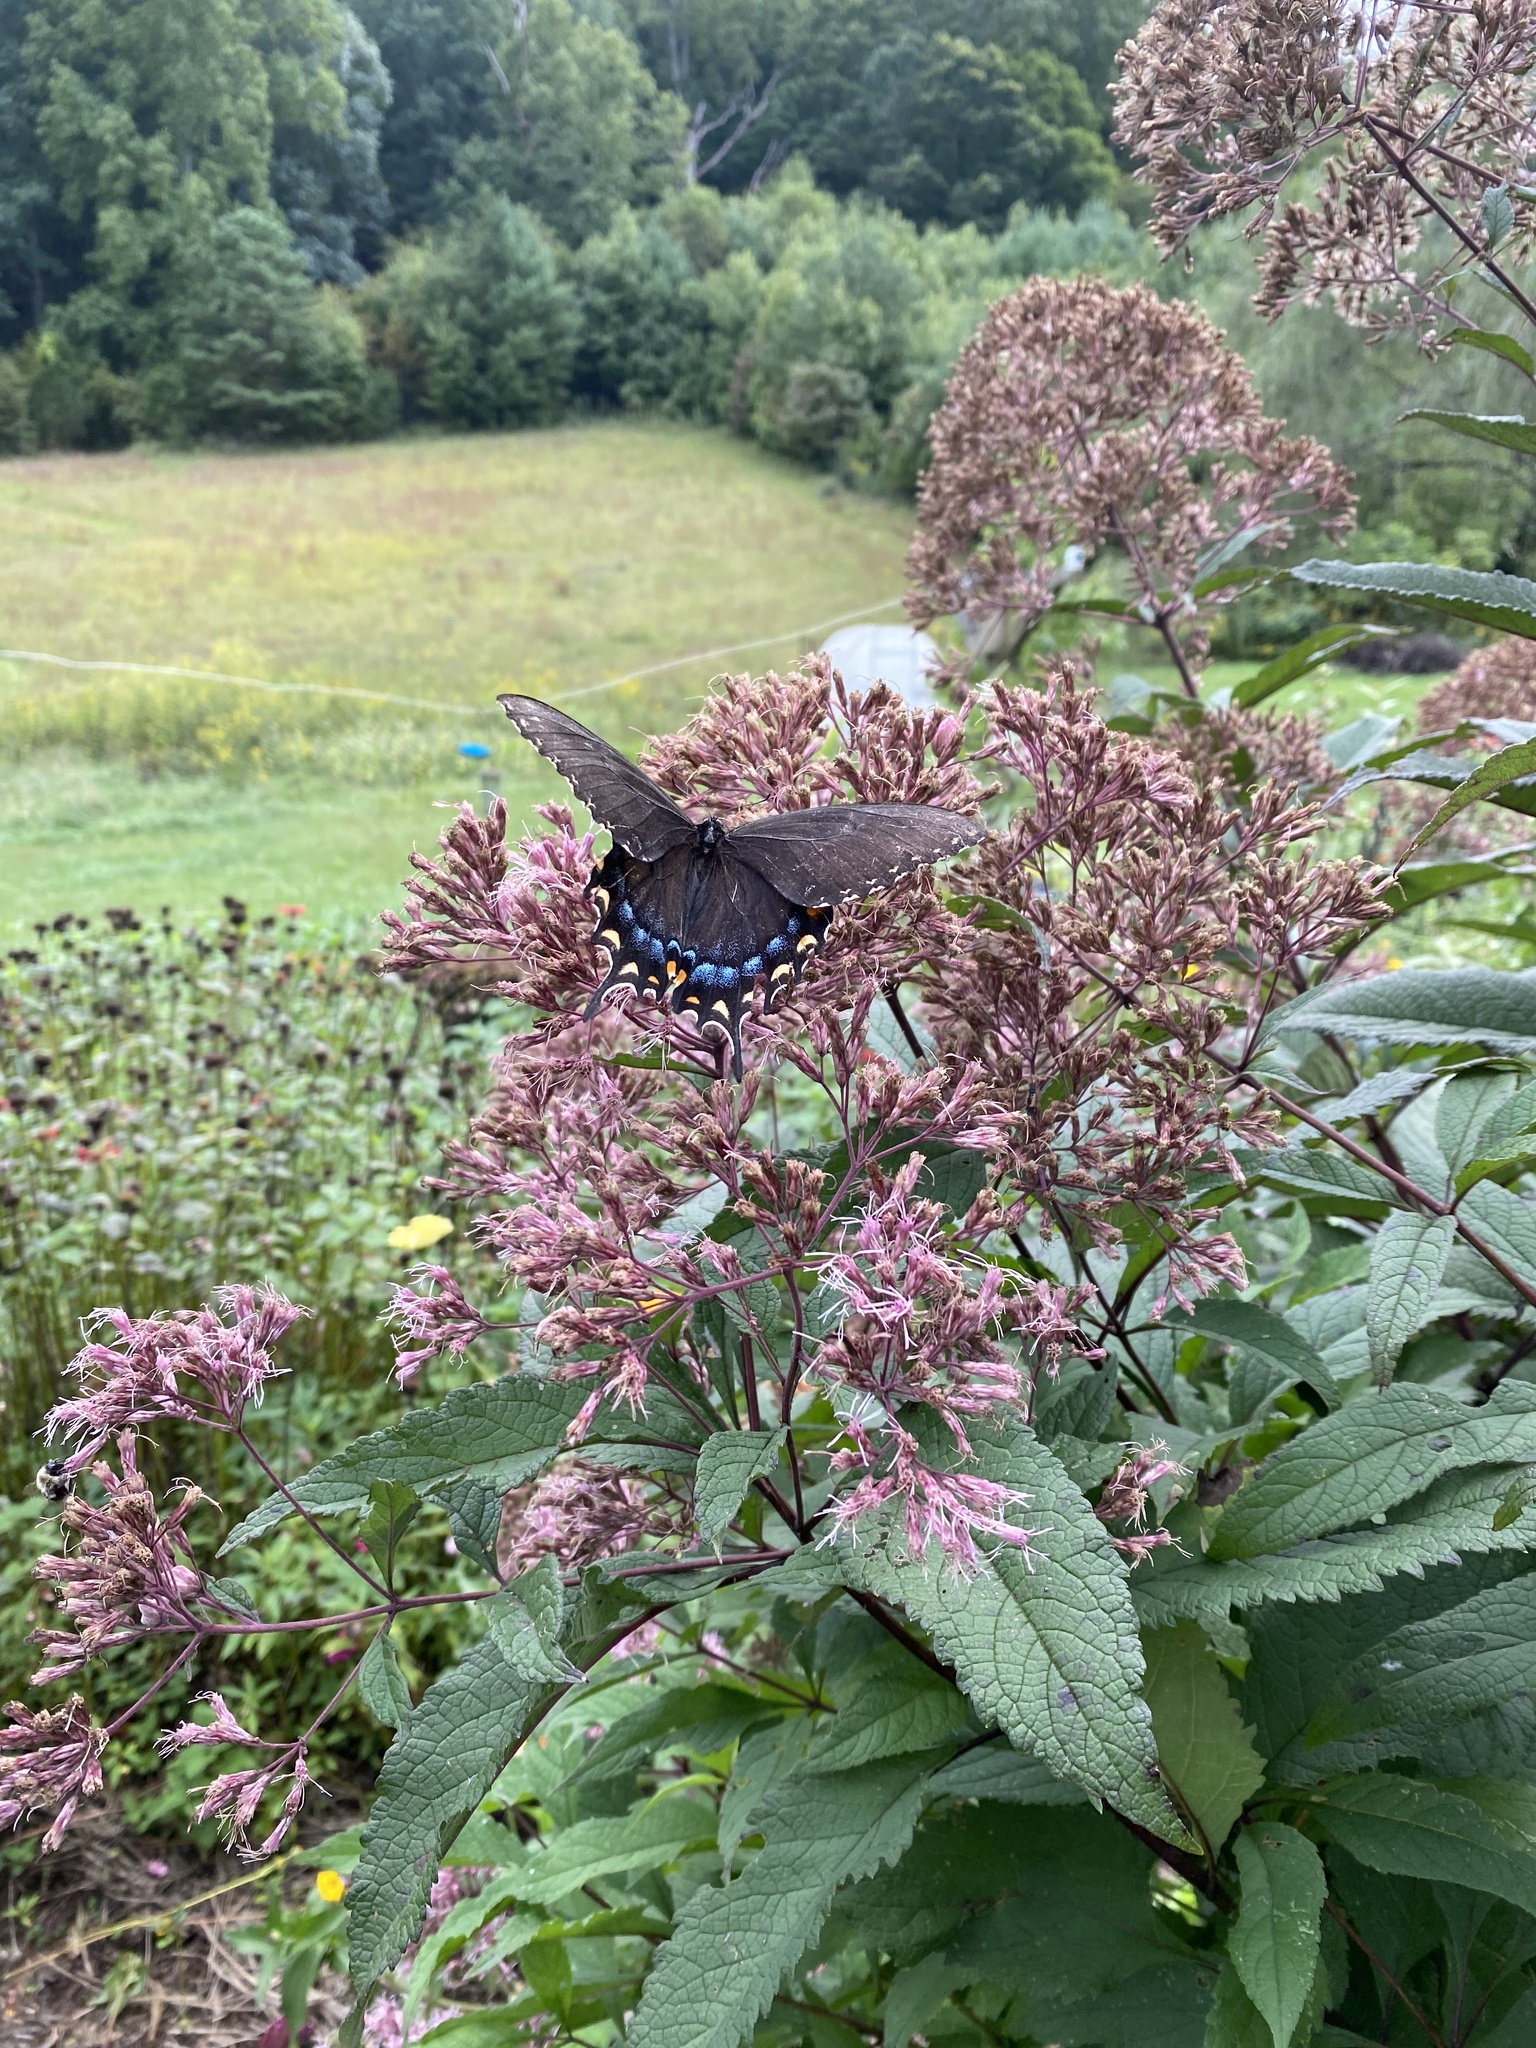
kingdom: Animalia
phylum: Arthropoda
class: Insecta
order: Lepidoptera
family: Papilionidae
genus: Papilio
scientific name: Papilio glaucus
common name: Tiger swallowtail
